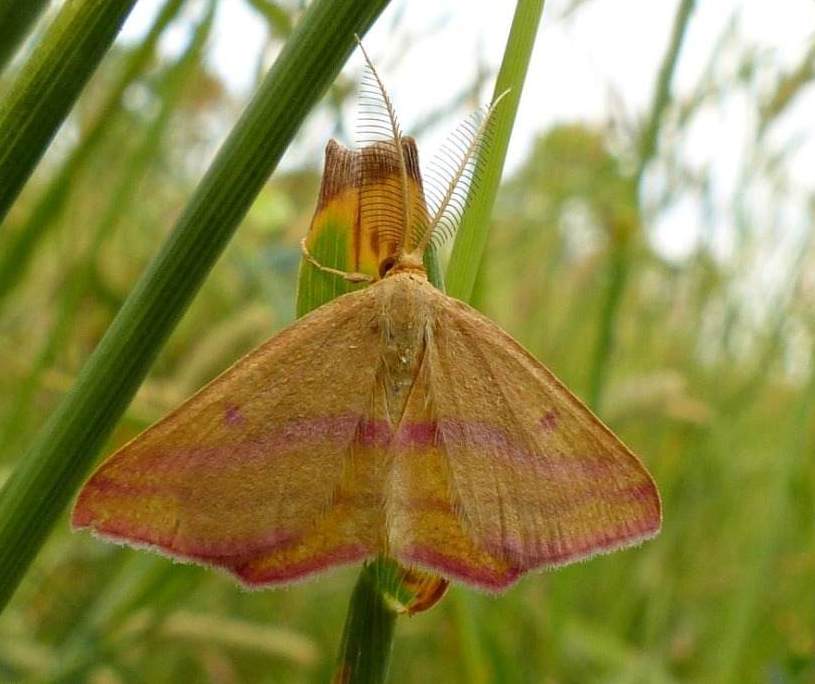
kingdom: Animalia
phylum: Arthropoda
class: Insecta
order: Lepidoptera
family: Geometridae
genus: Haematopis
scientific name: Haematopis grataria
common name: Chickweed geometer
